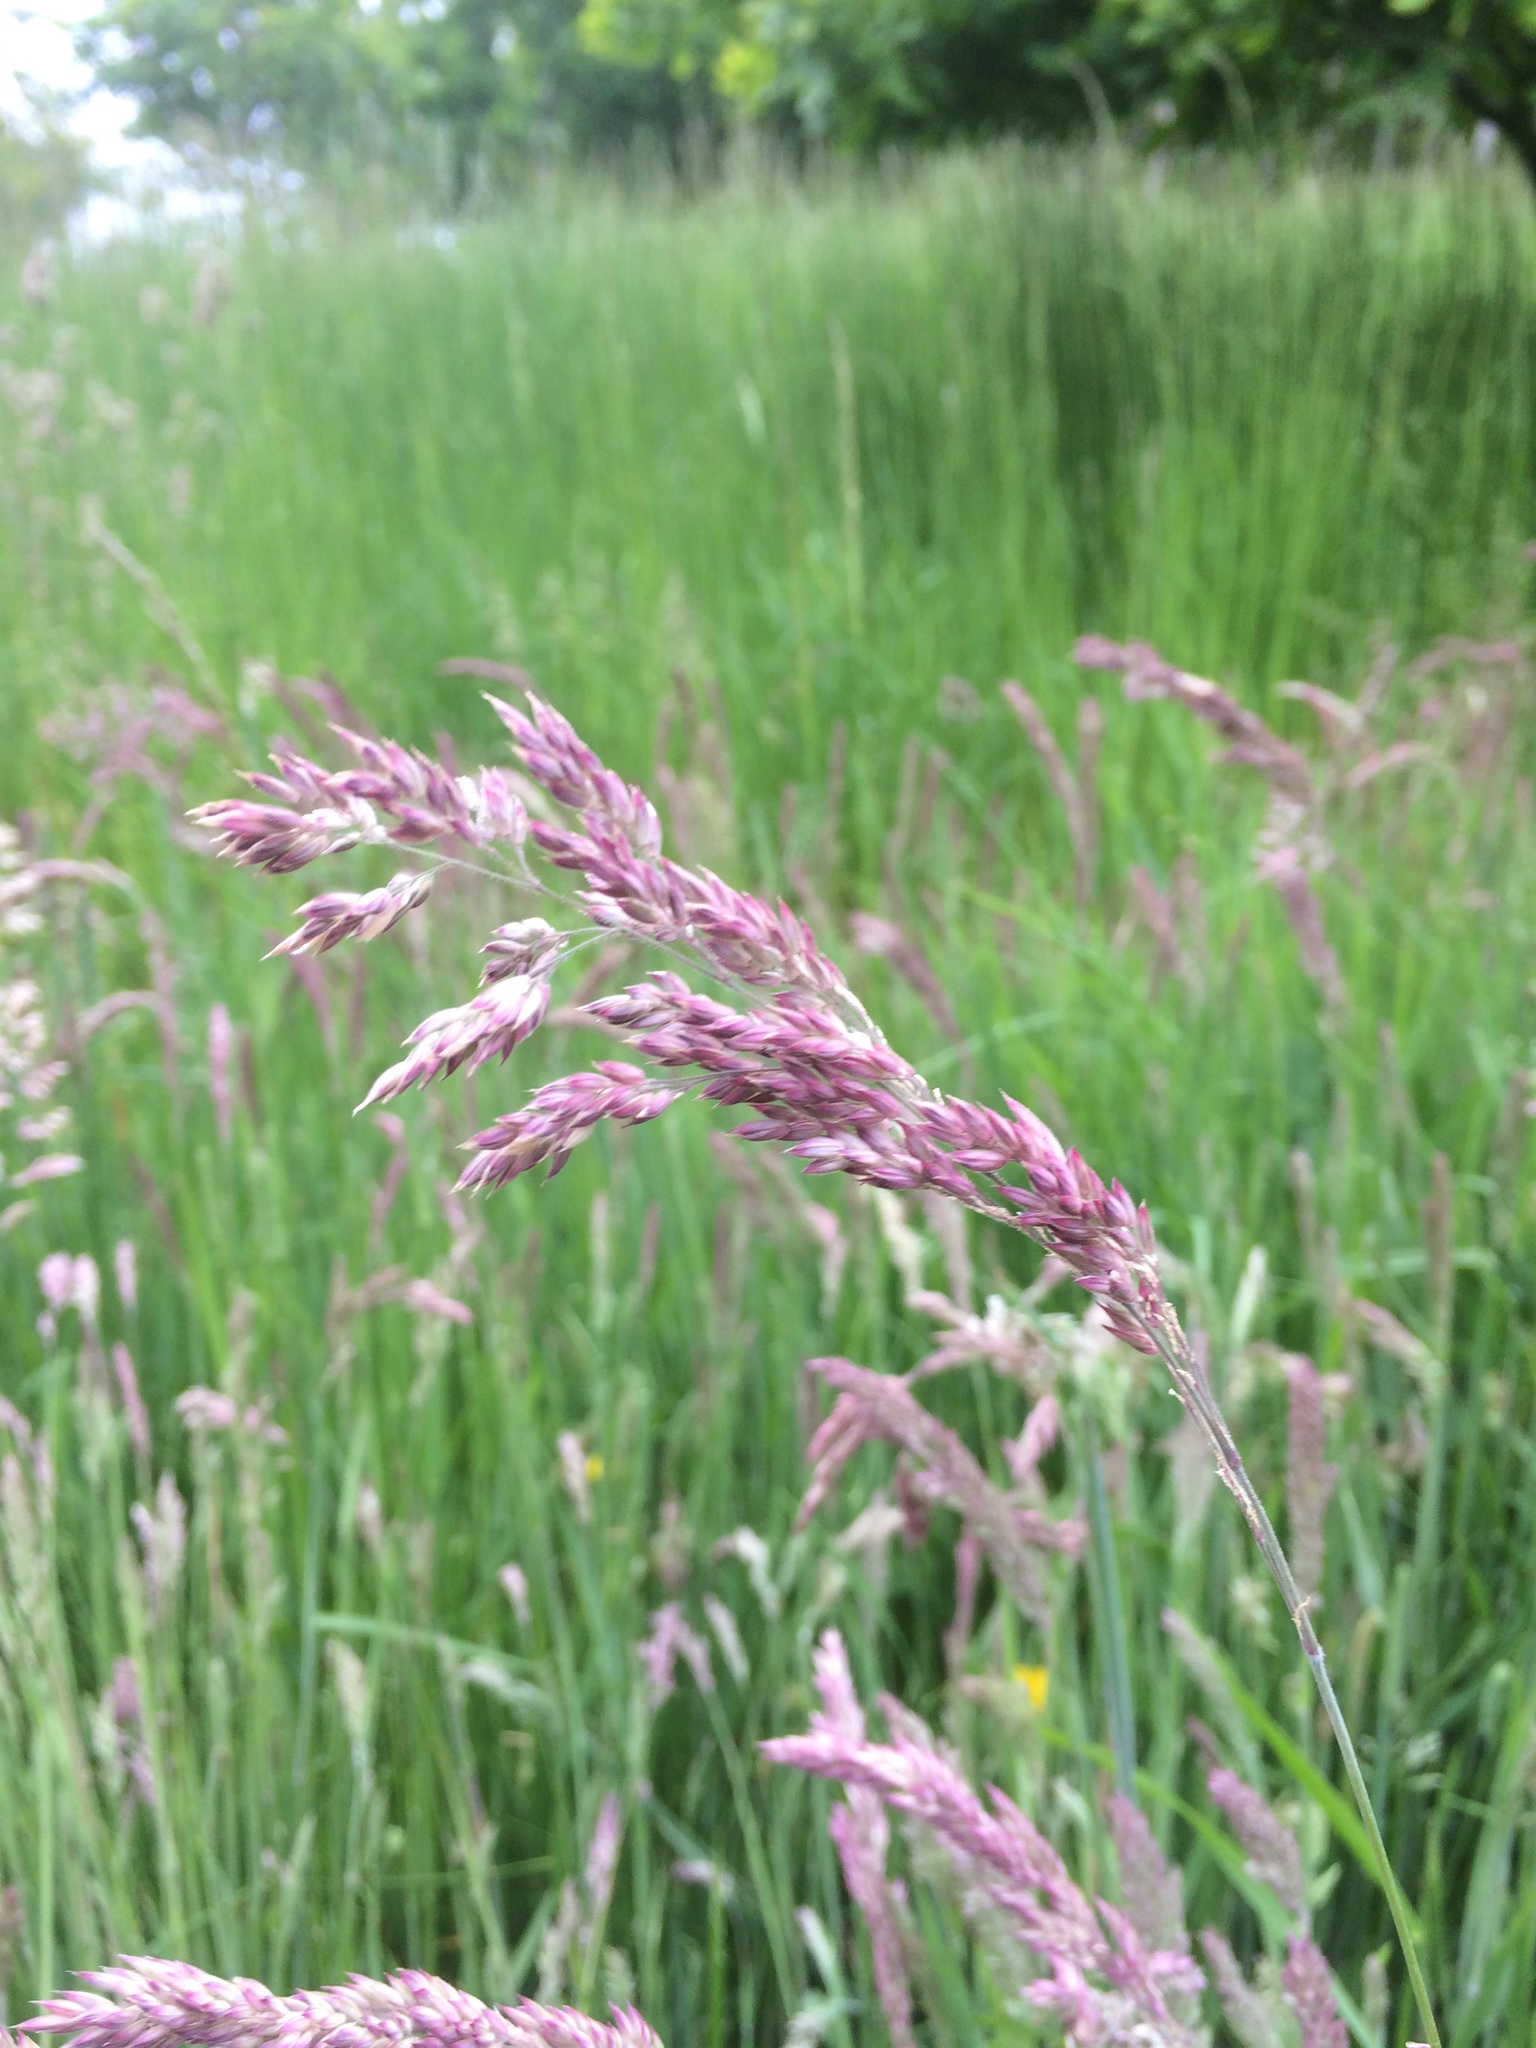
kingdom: Plantae
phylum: Tracheophyta
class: Liliopsida
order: Poales
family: Poaceae
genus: Holcus
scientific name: Holcus lanatus
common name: Yorkshire-fog
